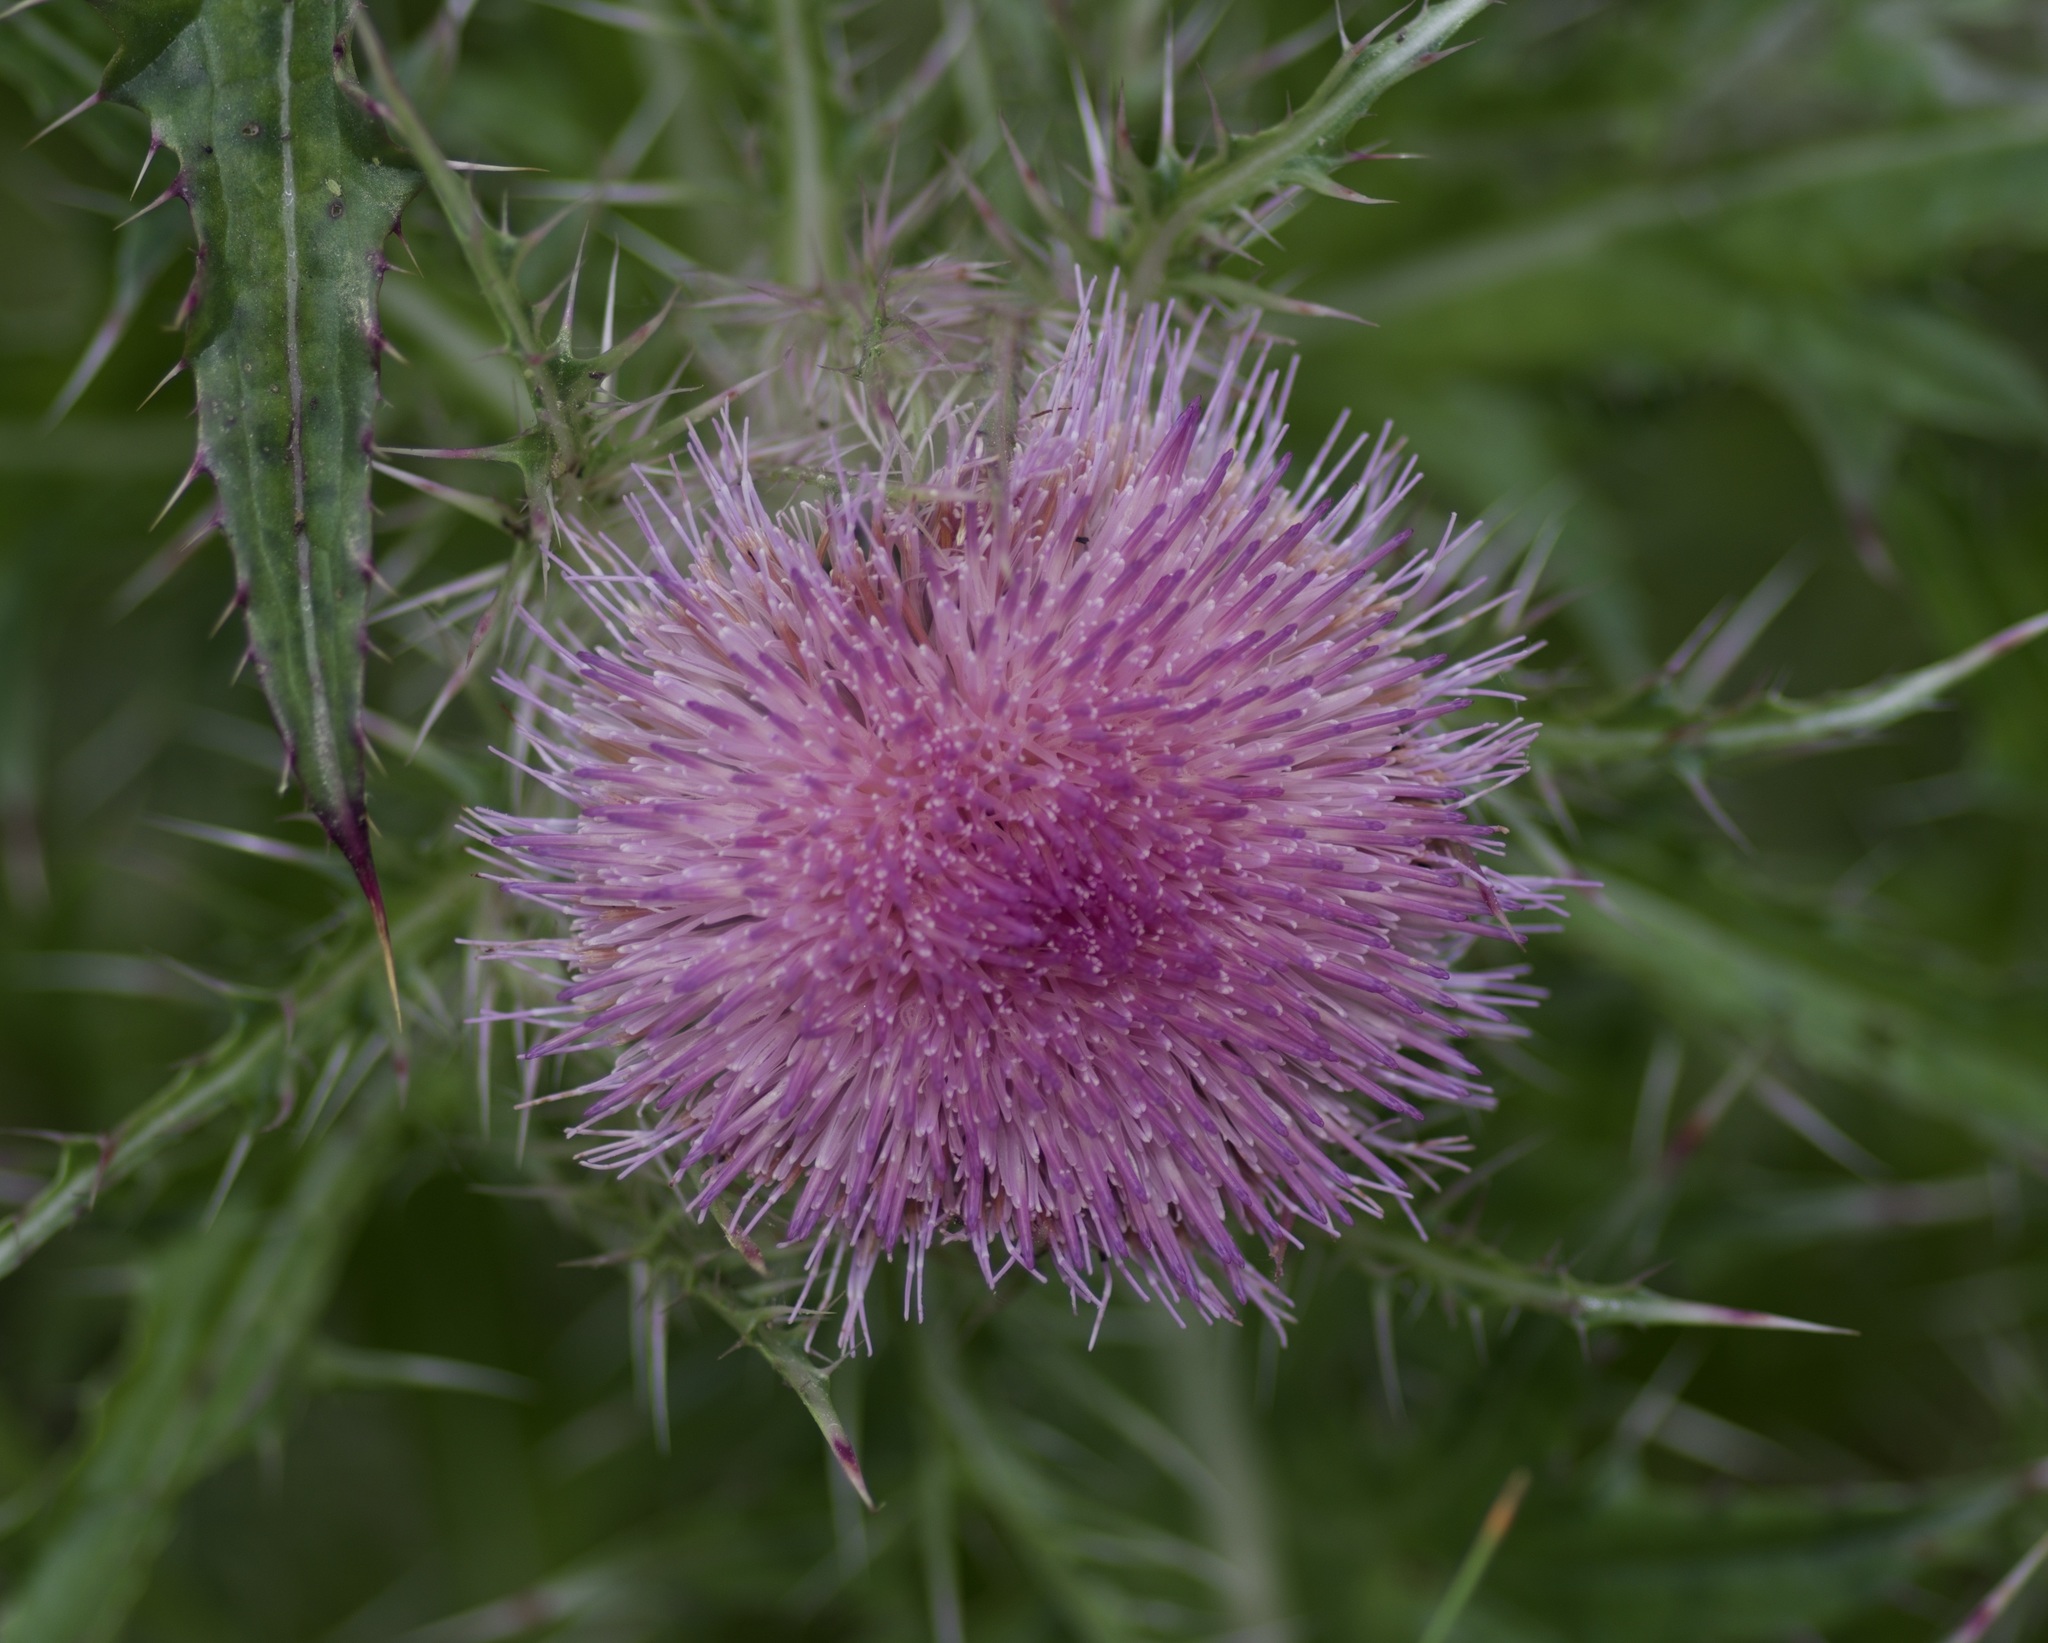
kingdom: Plantae
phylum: Tracheophyta
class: Magnoliopsida
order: Asterales
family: Asteraceae
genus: Cirsium
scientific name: Cirsium horridulum
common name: Bristly thistle
